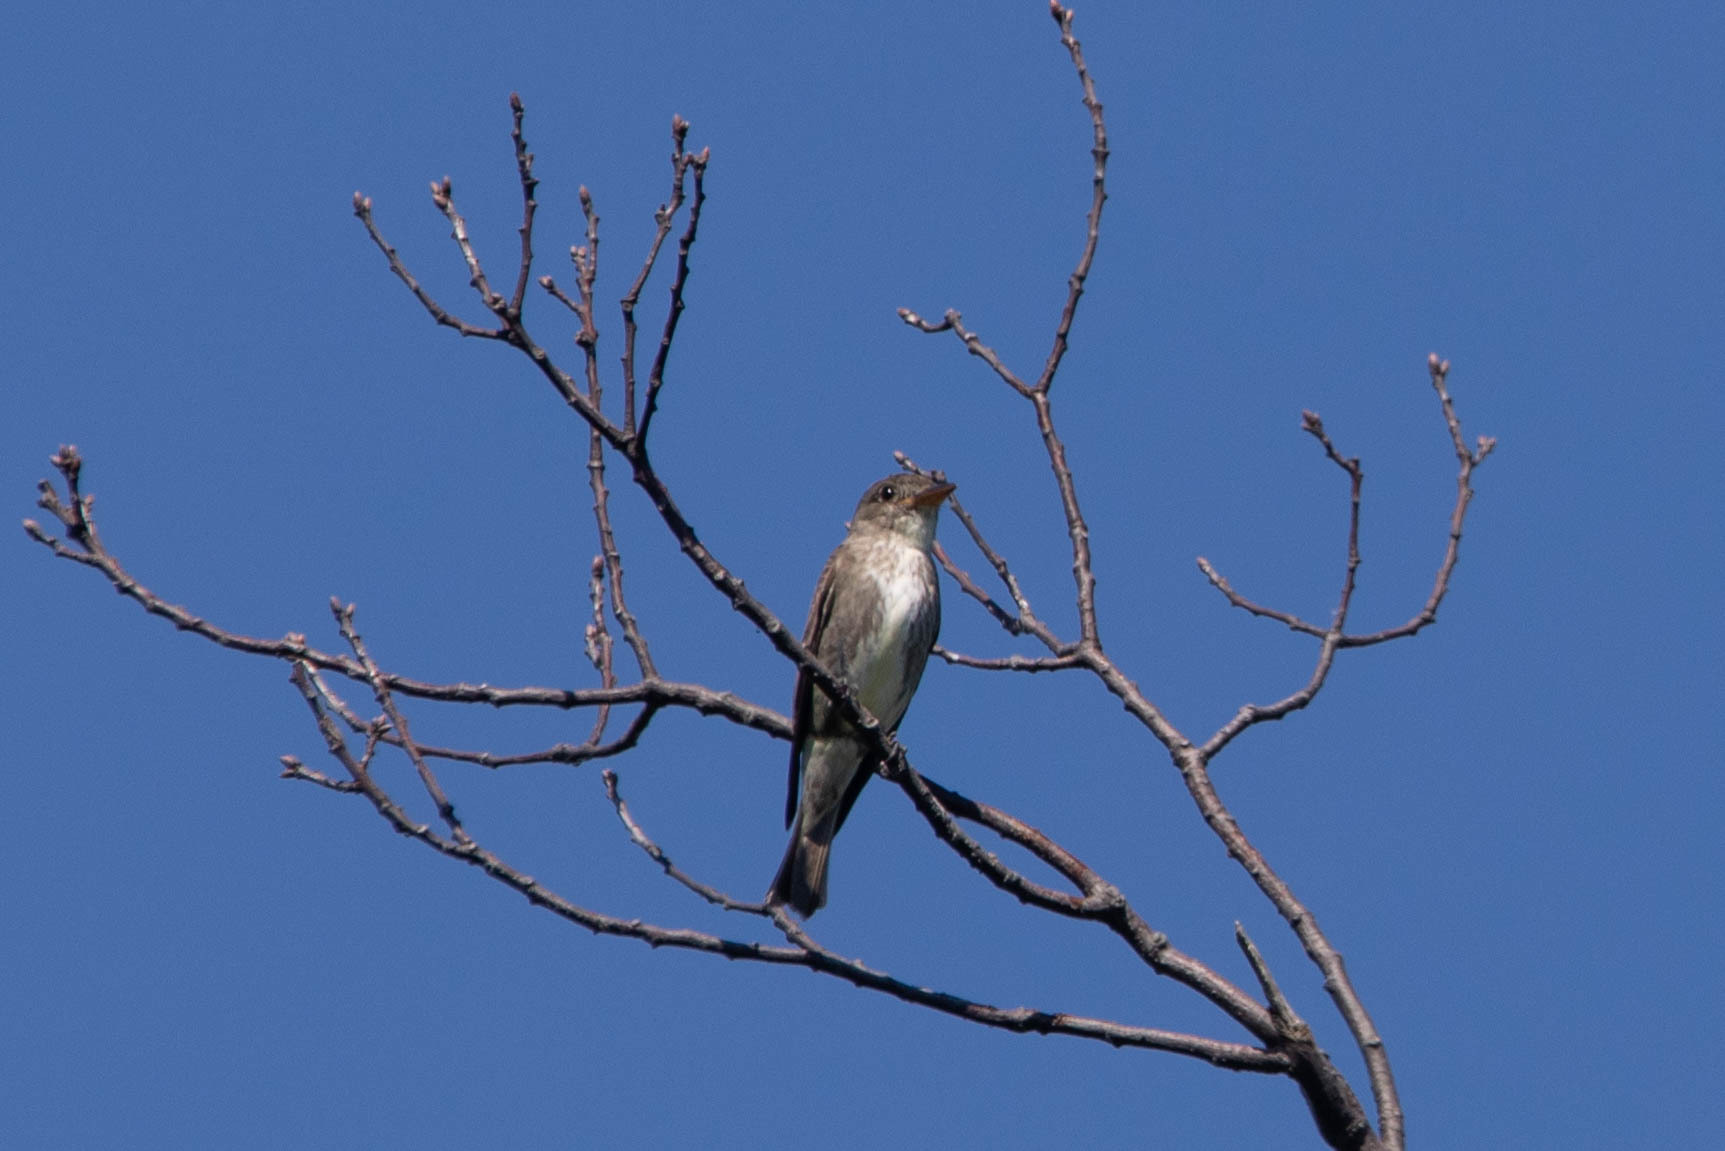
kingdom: Animalia
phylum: Chordata
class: Aves
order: Passeriformes
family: Tyrannidae
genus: Contopus
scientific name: Contopus cooperi
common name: Olive-sided flycatcher
